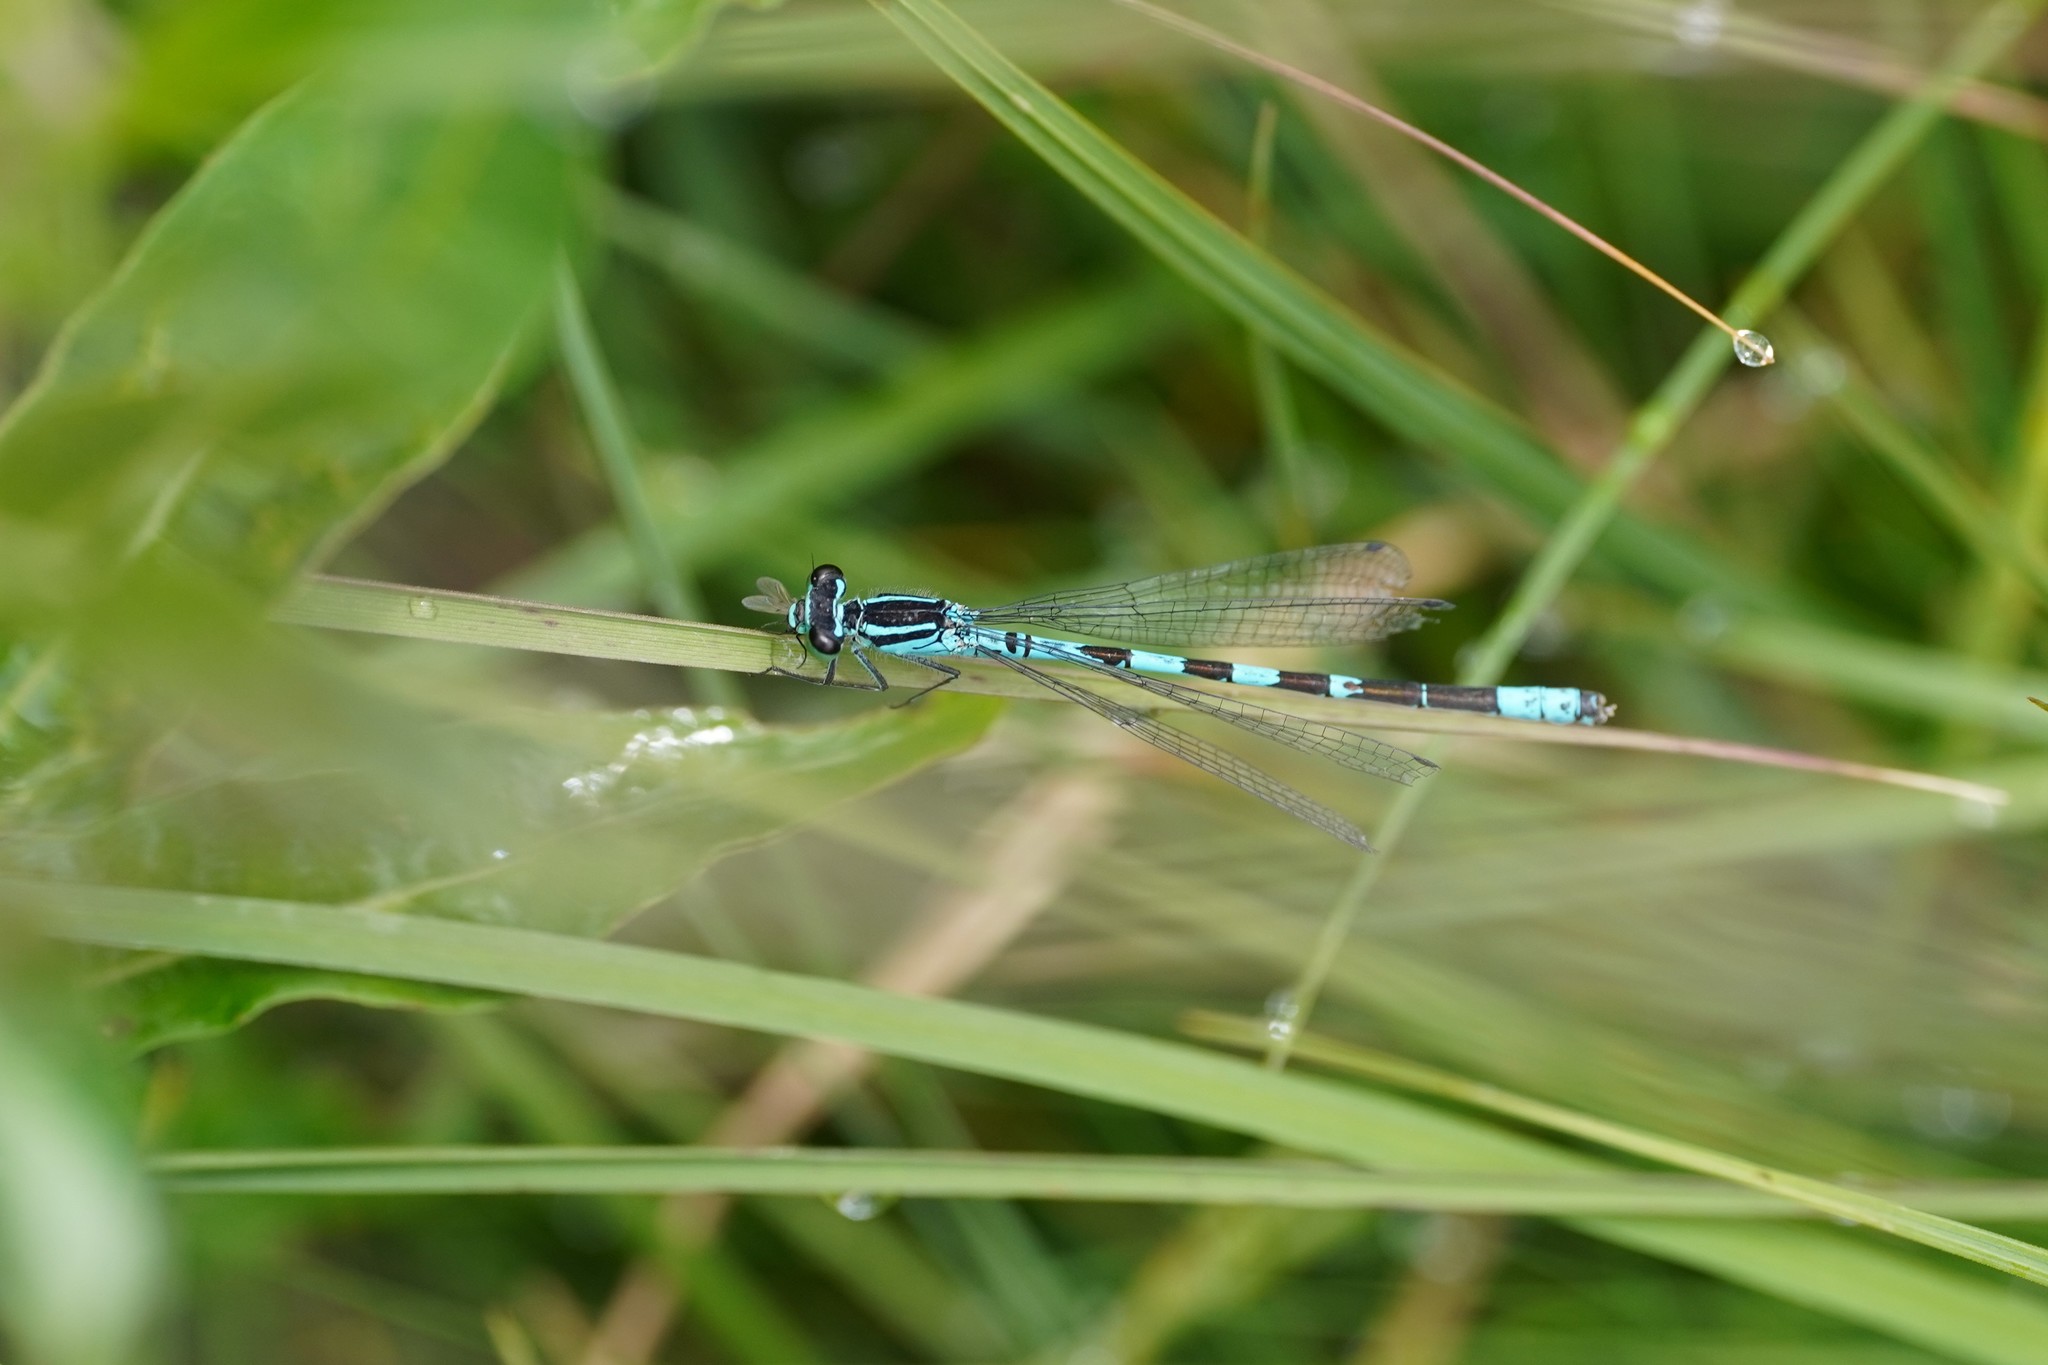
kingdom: Animalia
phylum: Arthropoda
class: Insecta
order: Odonata
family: Coenagrionidae
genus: Coenagrion
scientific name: Coenagrion hastulatum
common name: Spearhead bluet
